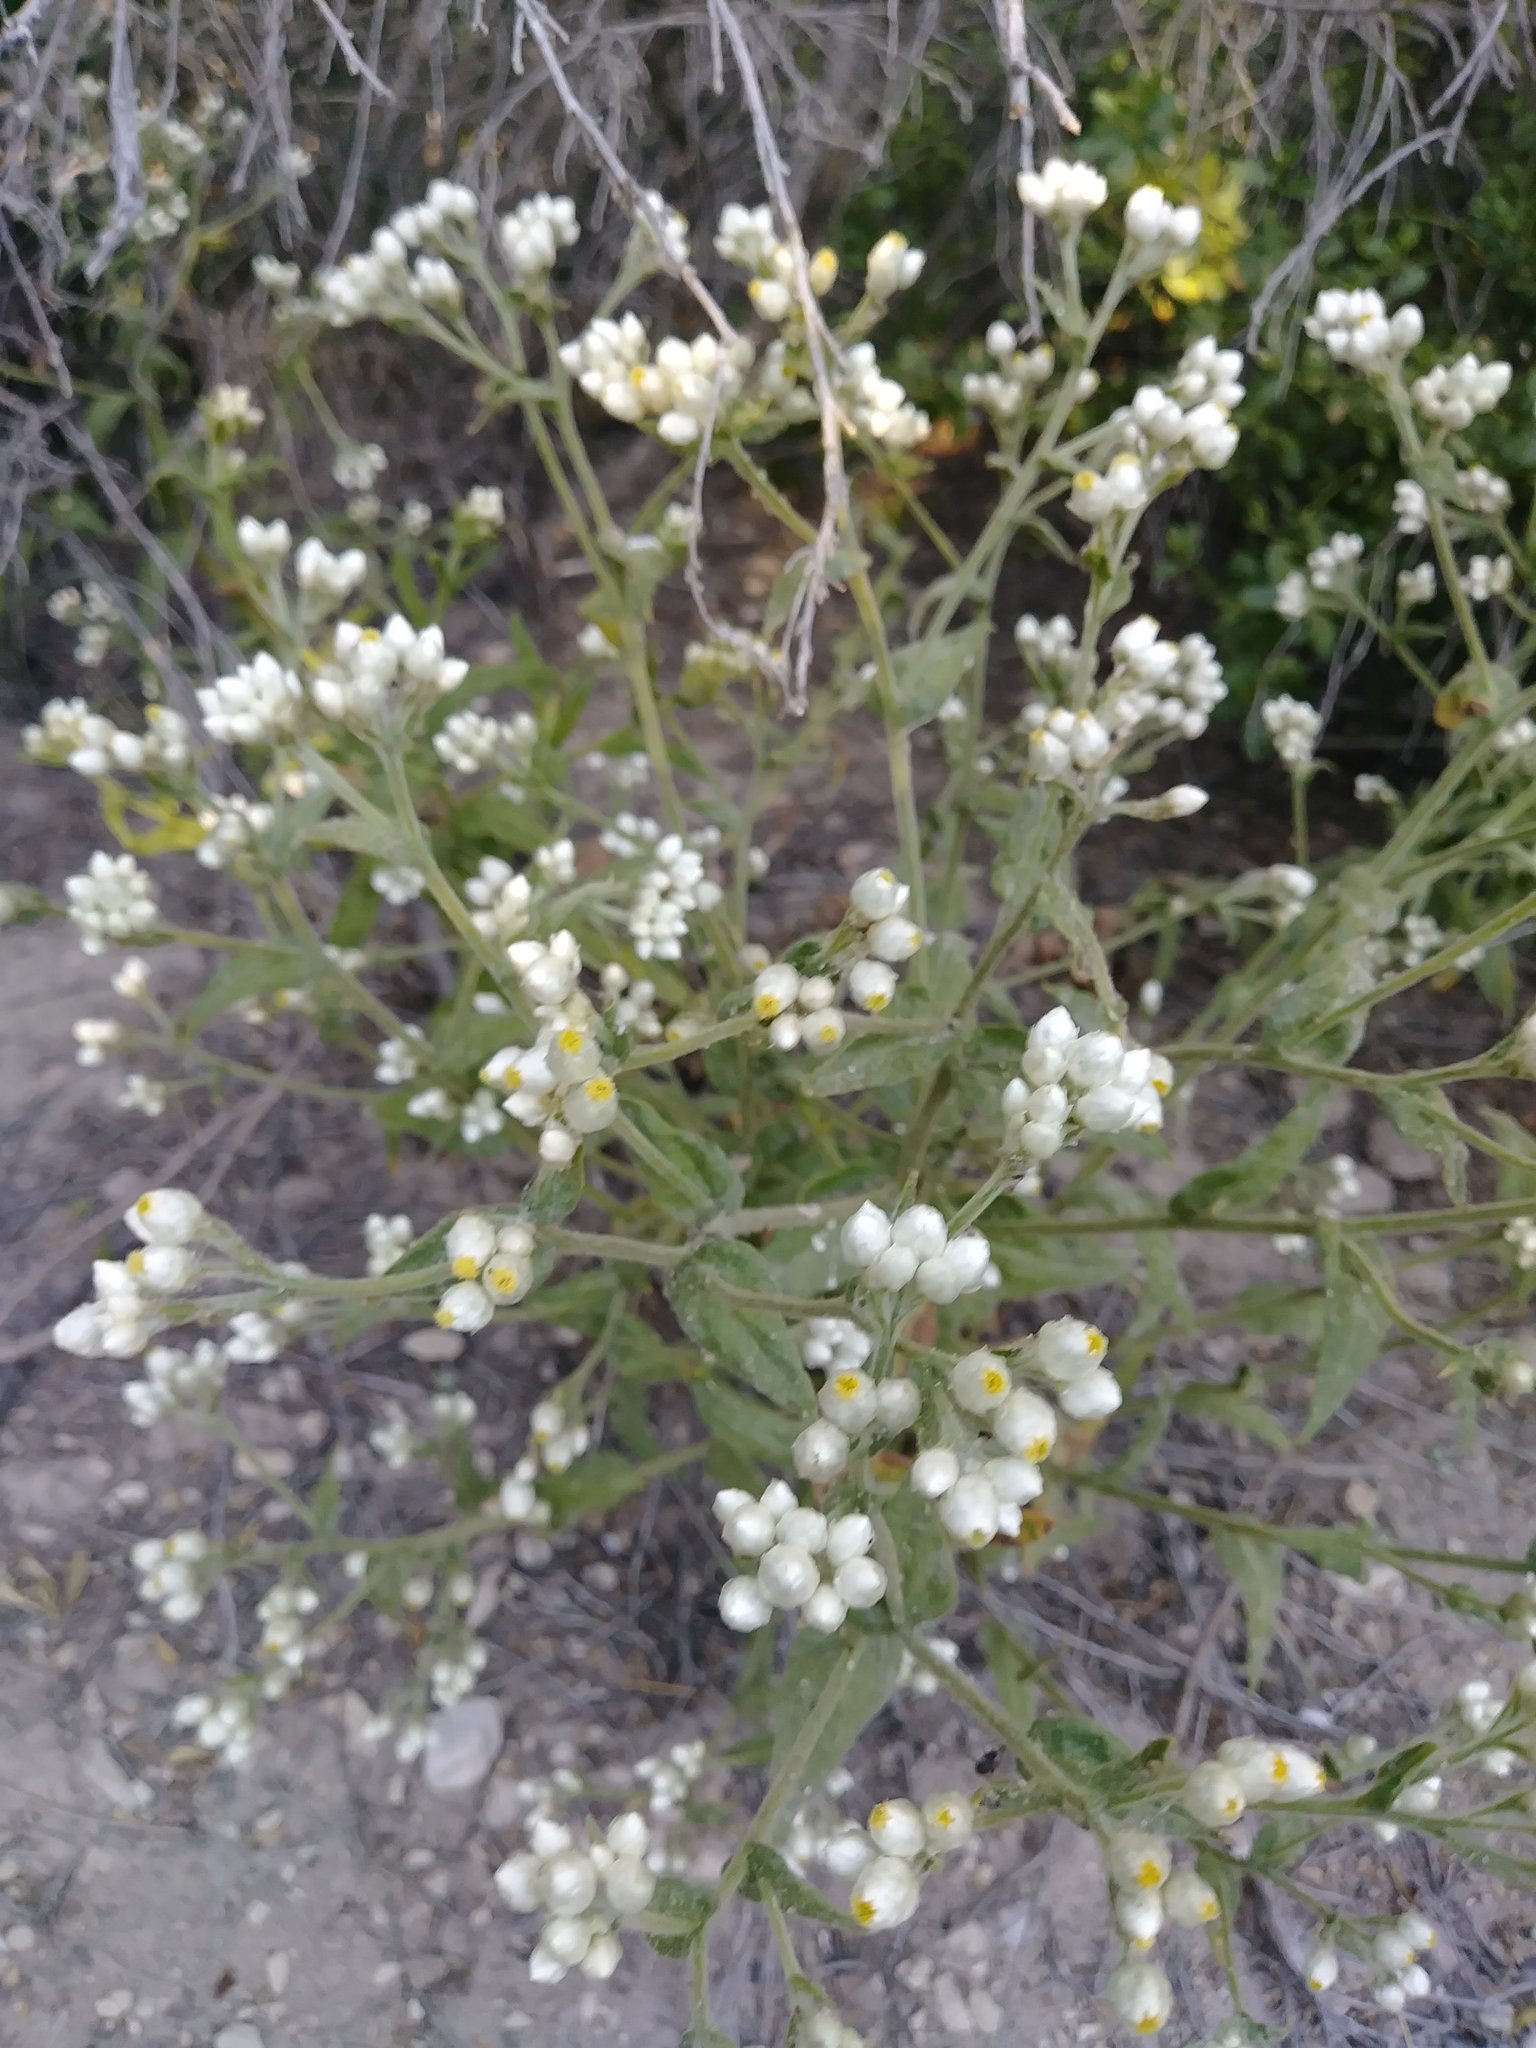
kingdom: Plantae
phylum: Tracheophyta
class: Magnoliopsida
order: Asterales
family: Asteraceae
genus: Pseudognaphalium
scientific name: Pseudognaphalium californicum
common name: California rabbit-tobacco
